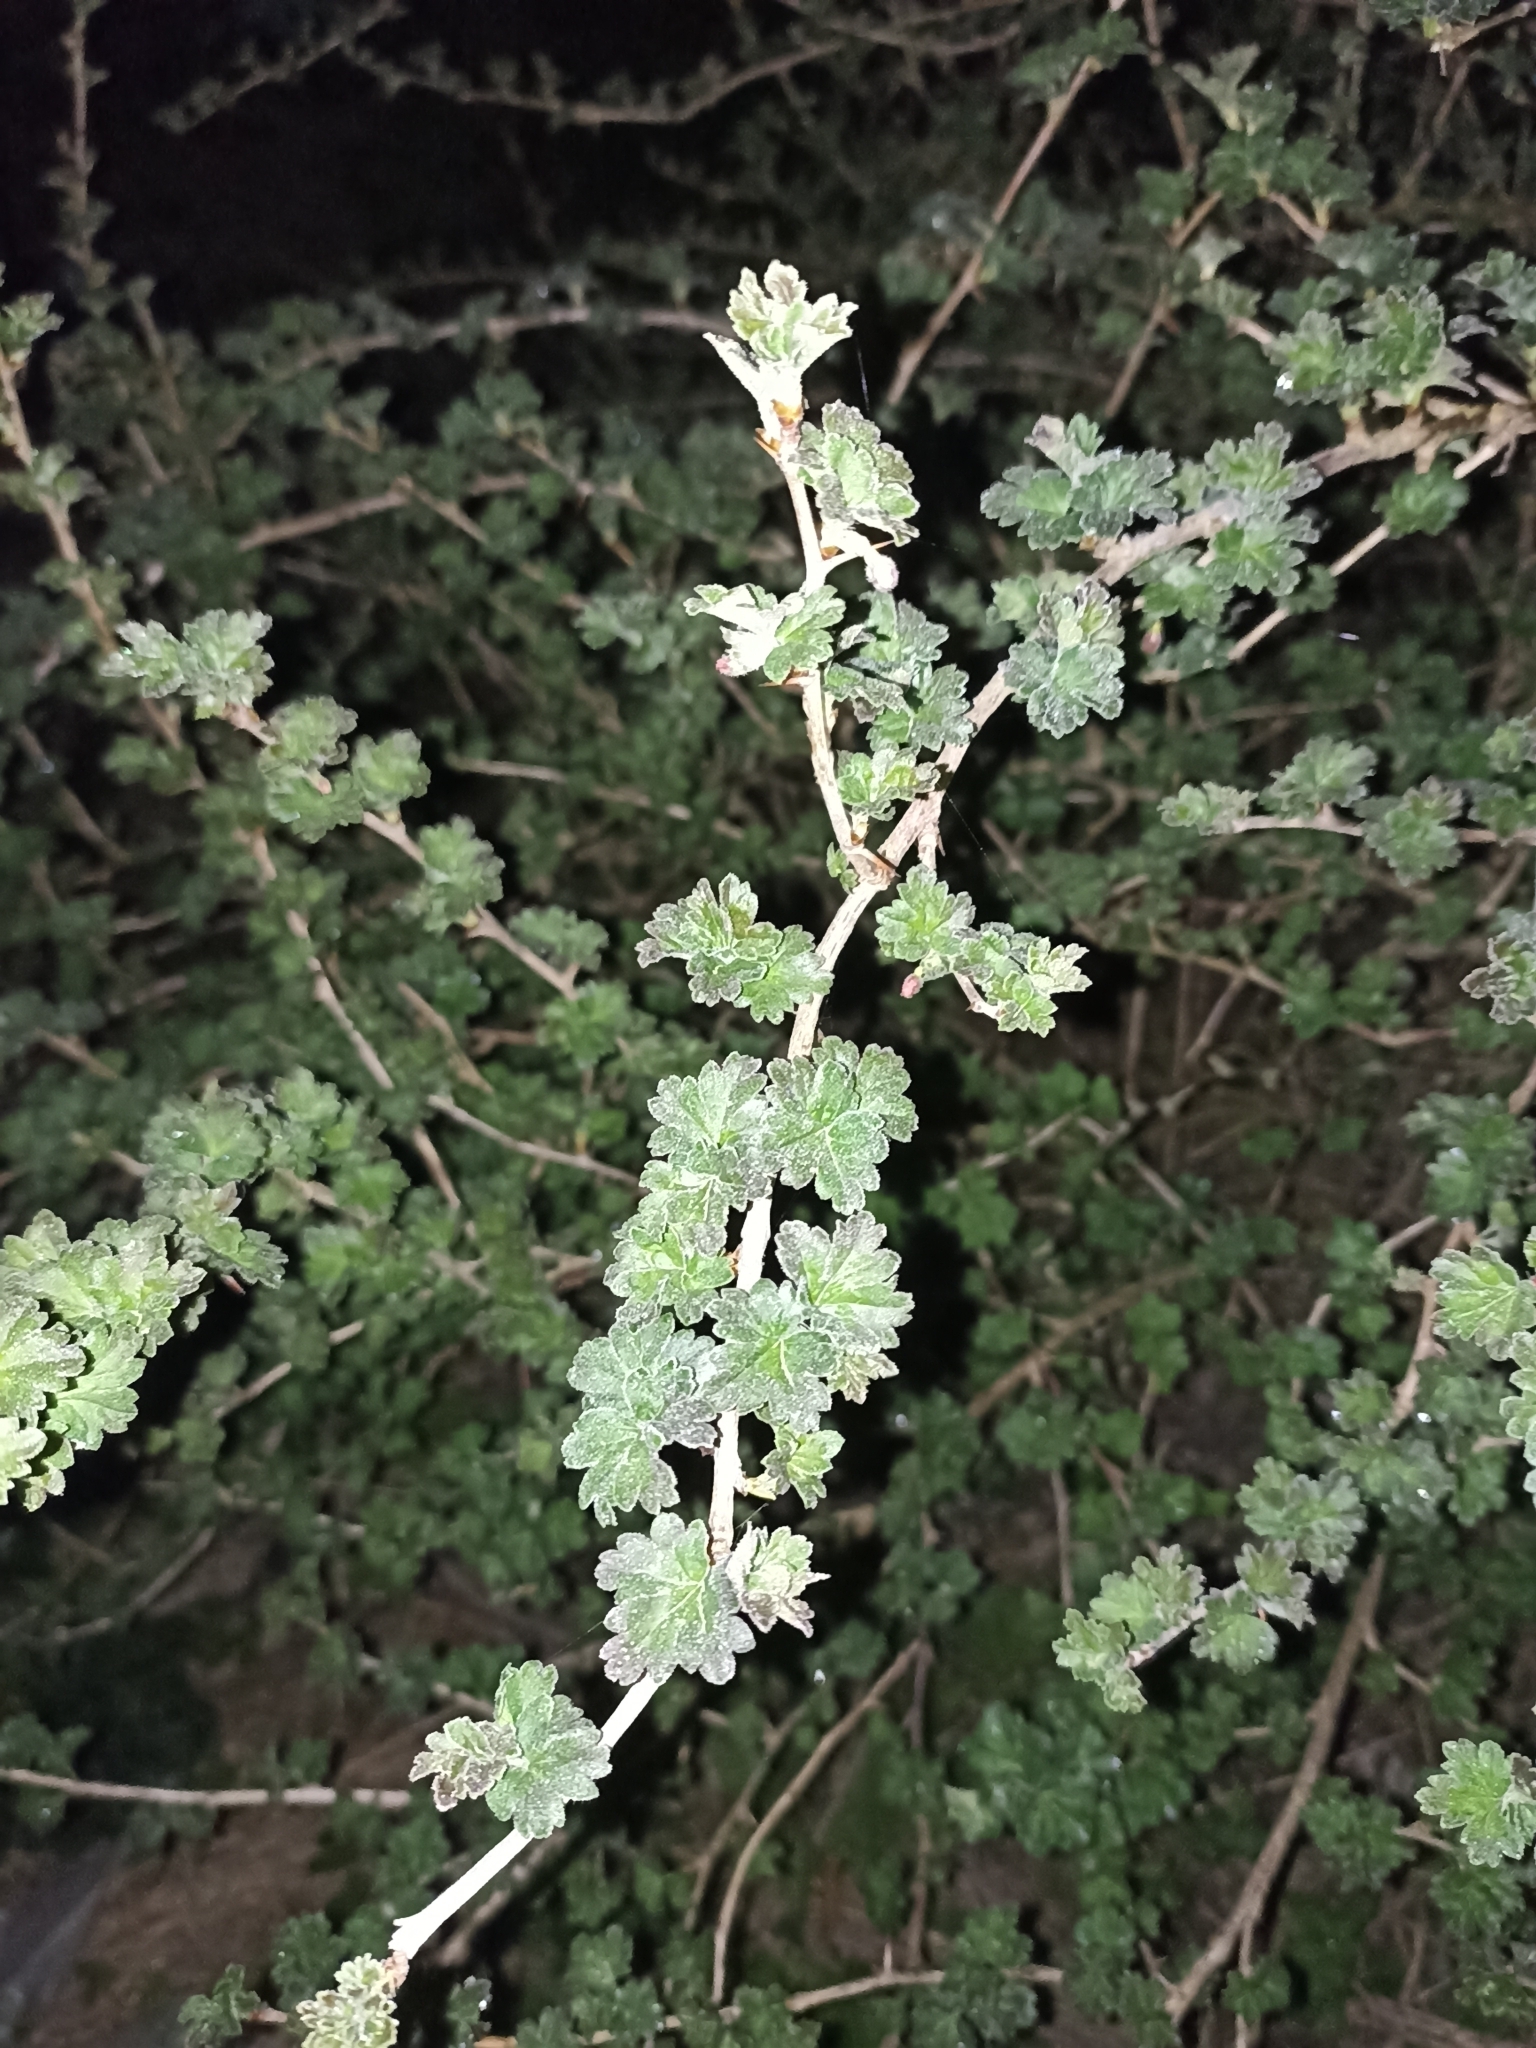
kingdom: Plantae
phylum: Tracheophyta
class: Magnoliopsida
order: Saxifragales
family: Grossulariaceae
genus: Ribes
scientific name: Ribes uva-crispa
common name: Gooseberry
